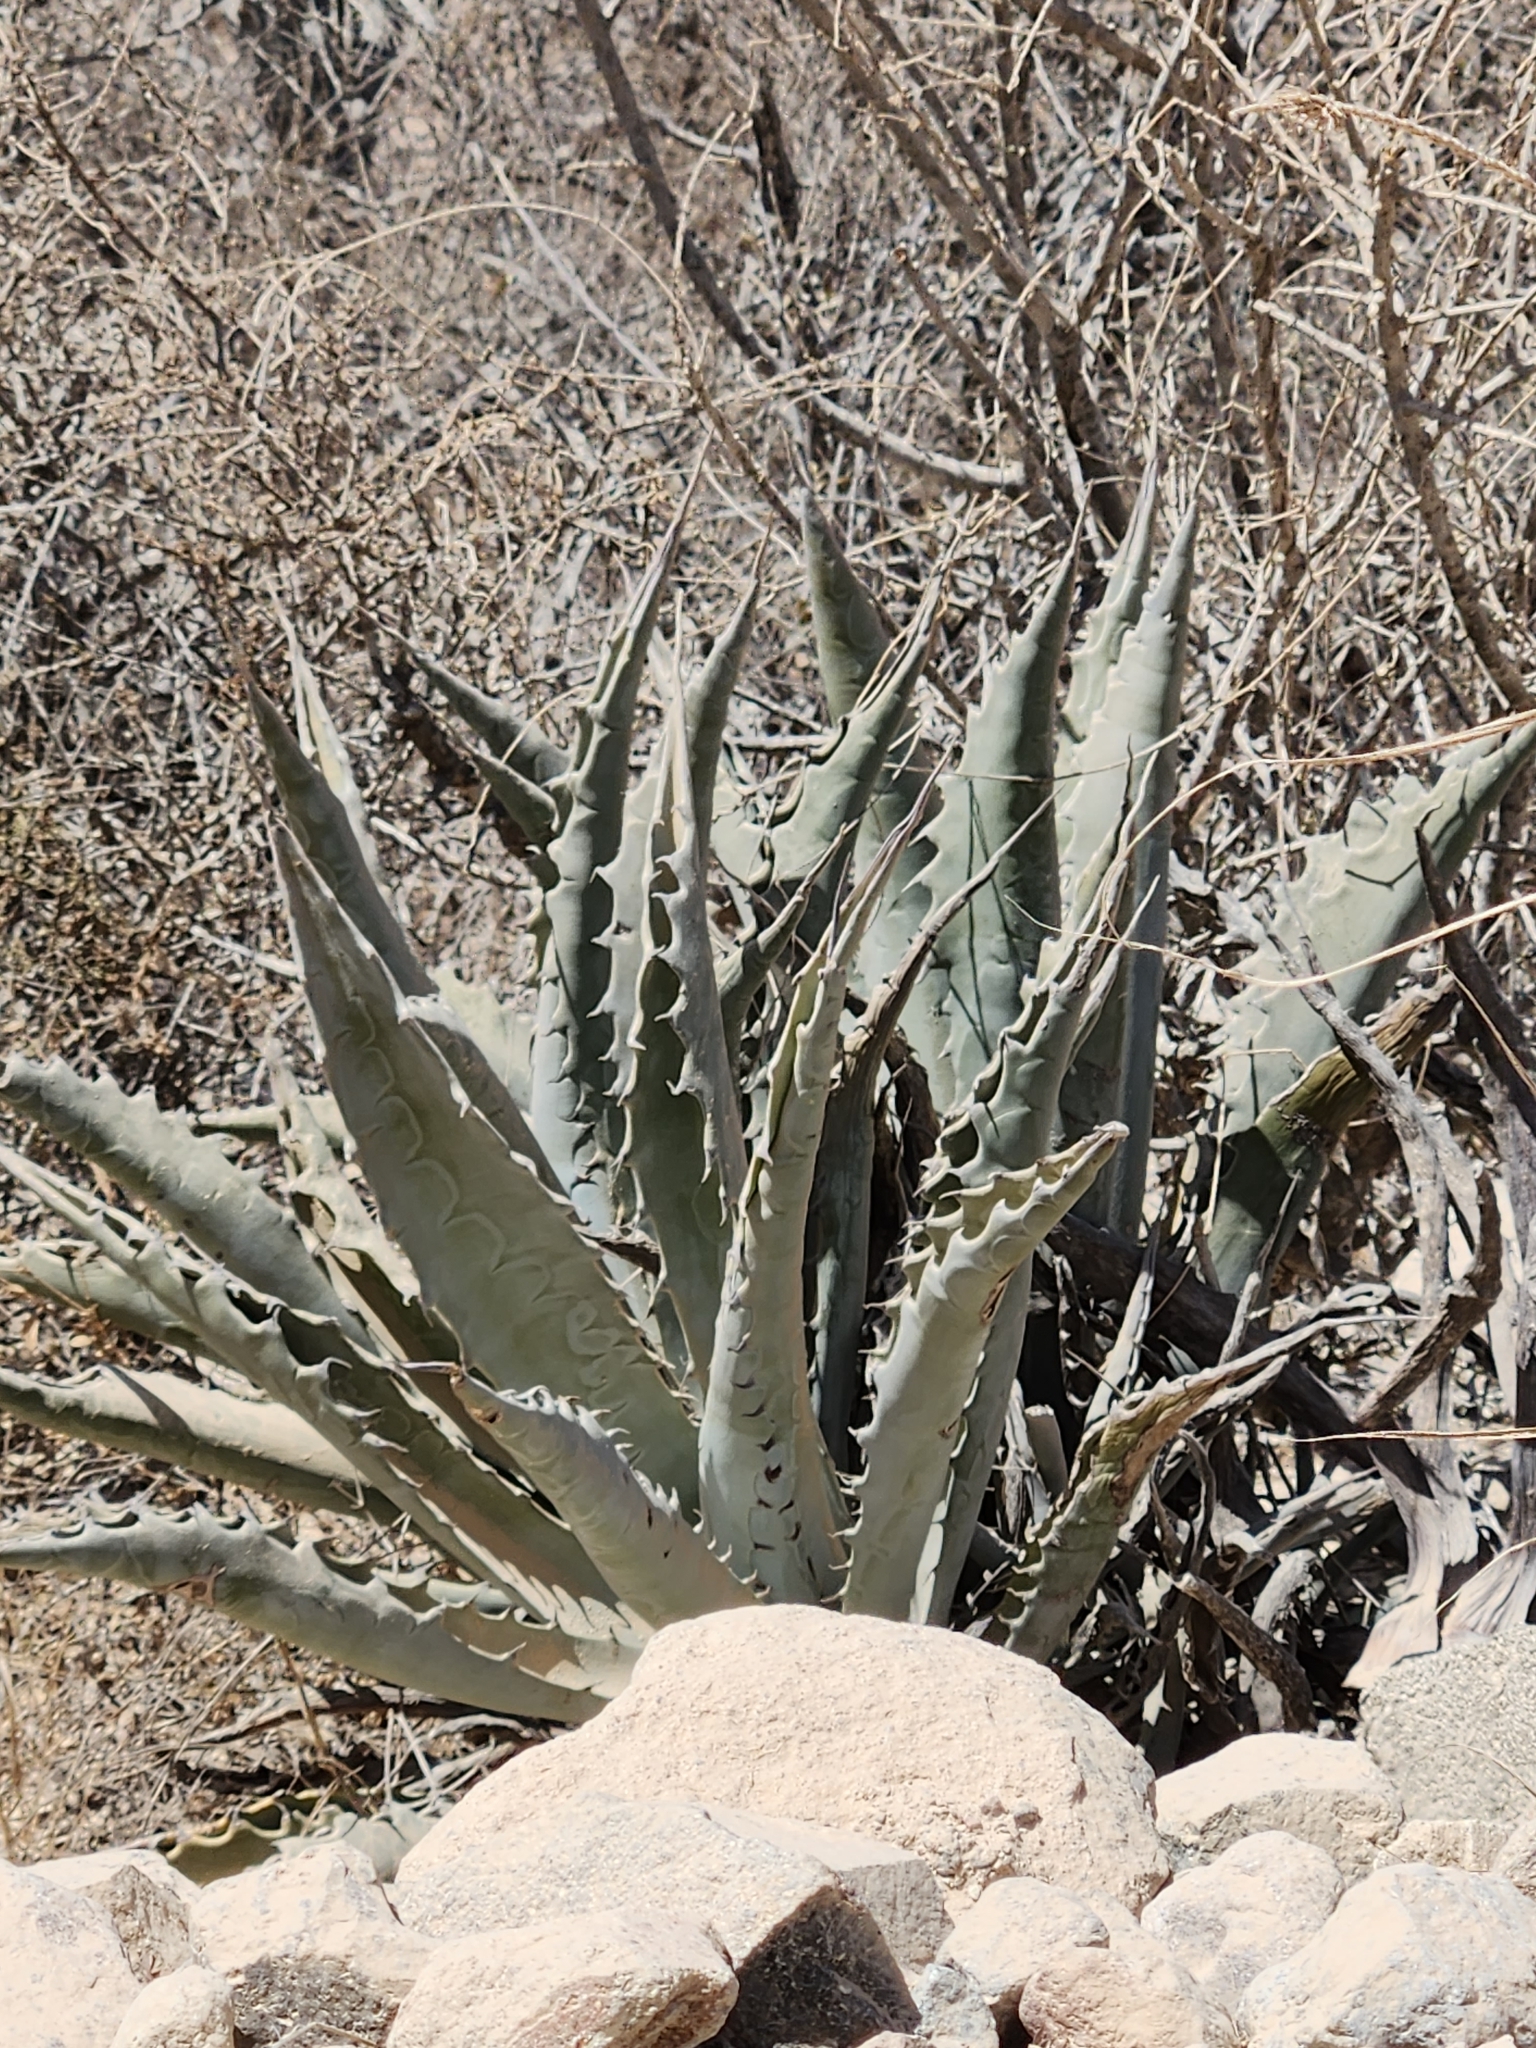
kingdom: Plantae
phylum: Tracheophyta
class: Liliopsida
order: Asparagales
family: Asparagaceae
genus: Agave
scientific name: Agave sobria
